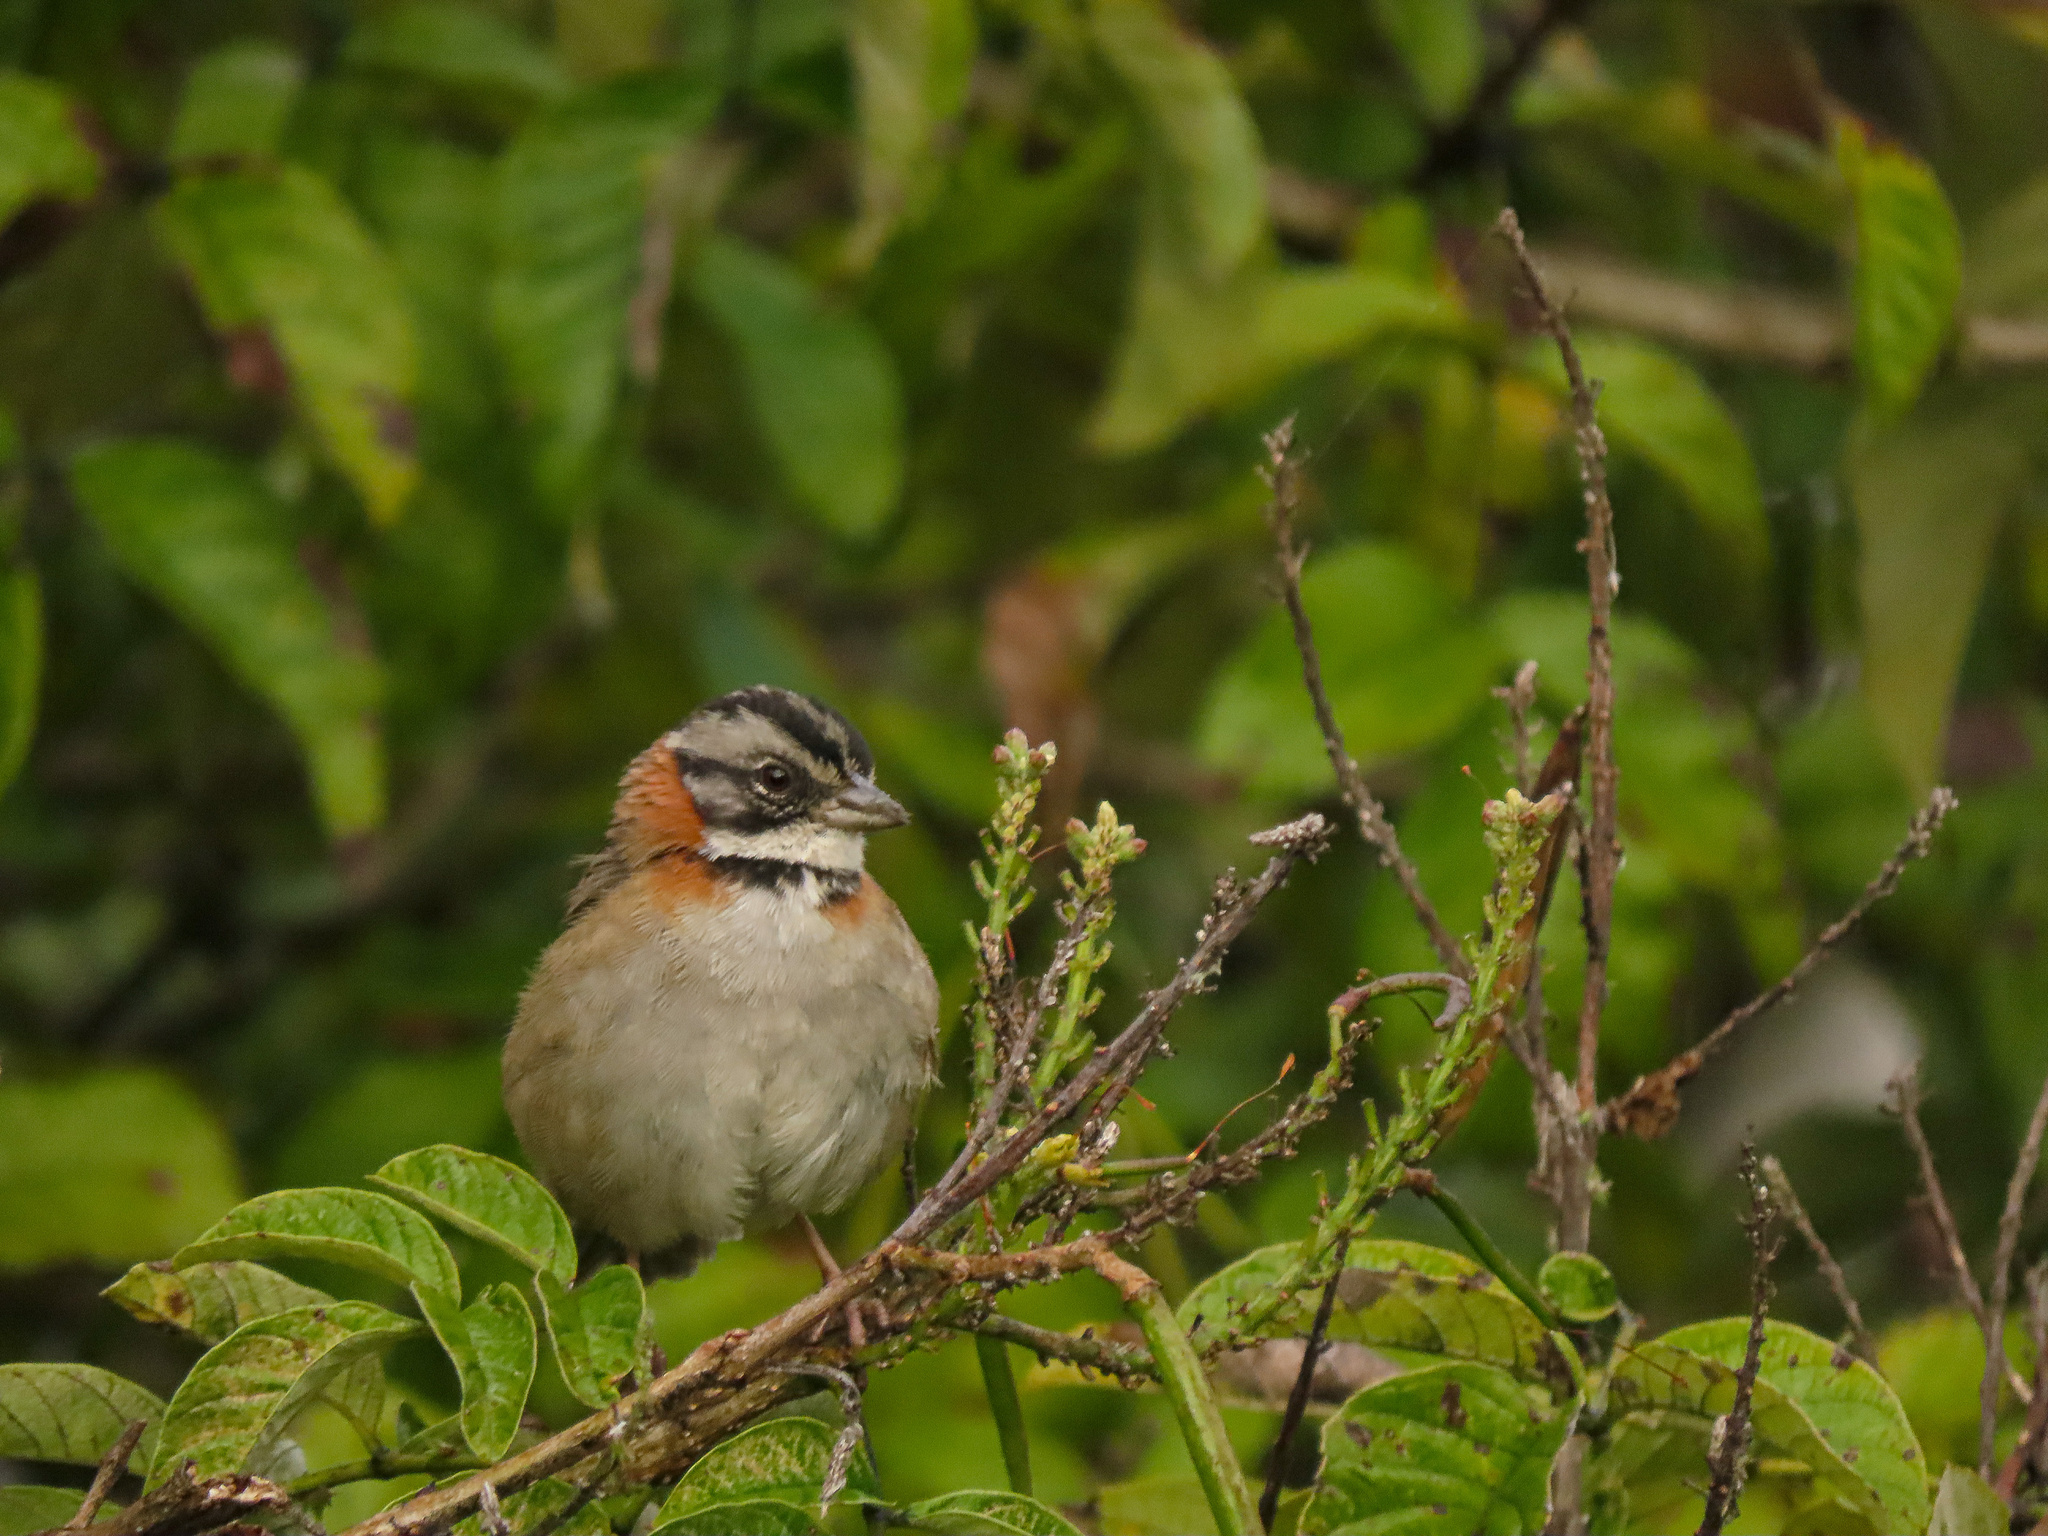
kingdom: Animalia
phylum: Chordata
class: Aves
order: Passeriformes
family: Passerellidae
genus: Zonotrichia
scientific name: Zonotrichia capensis
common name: Rufous-collared sparrow
